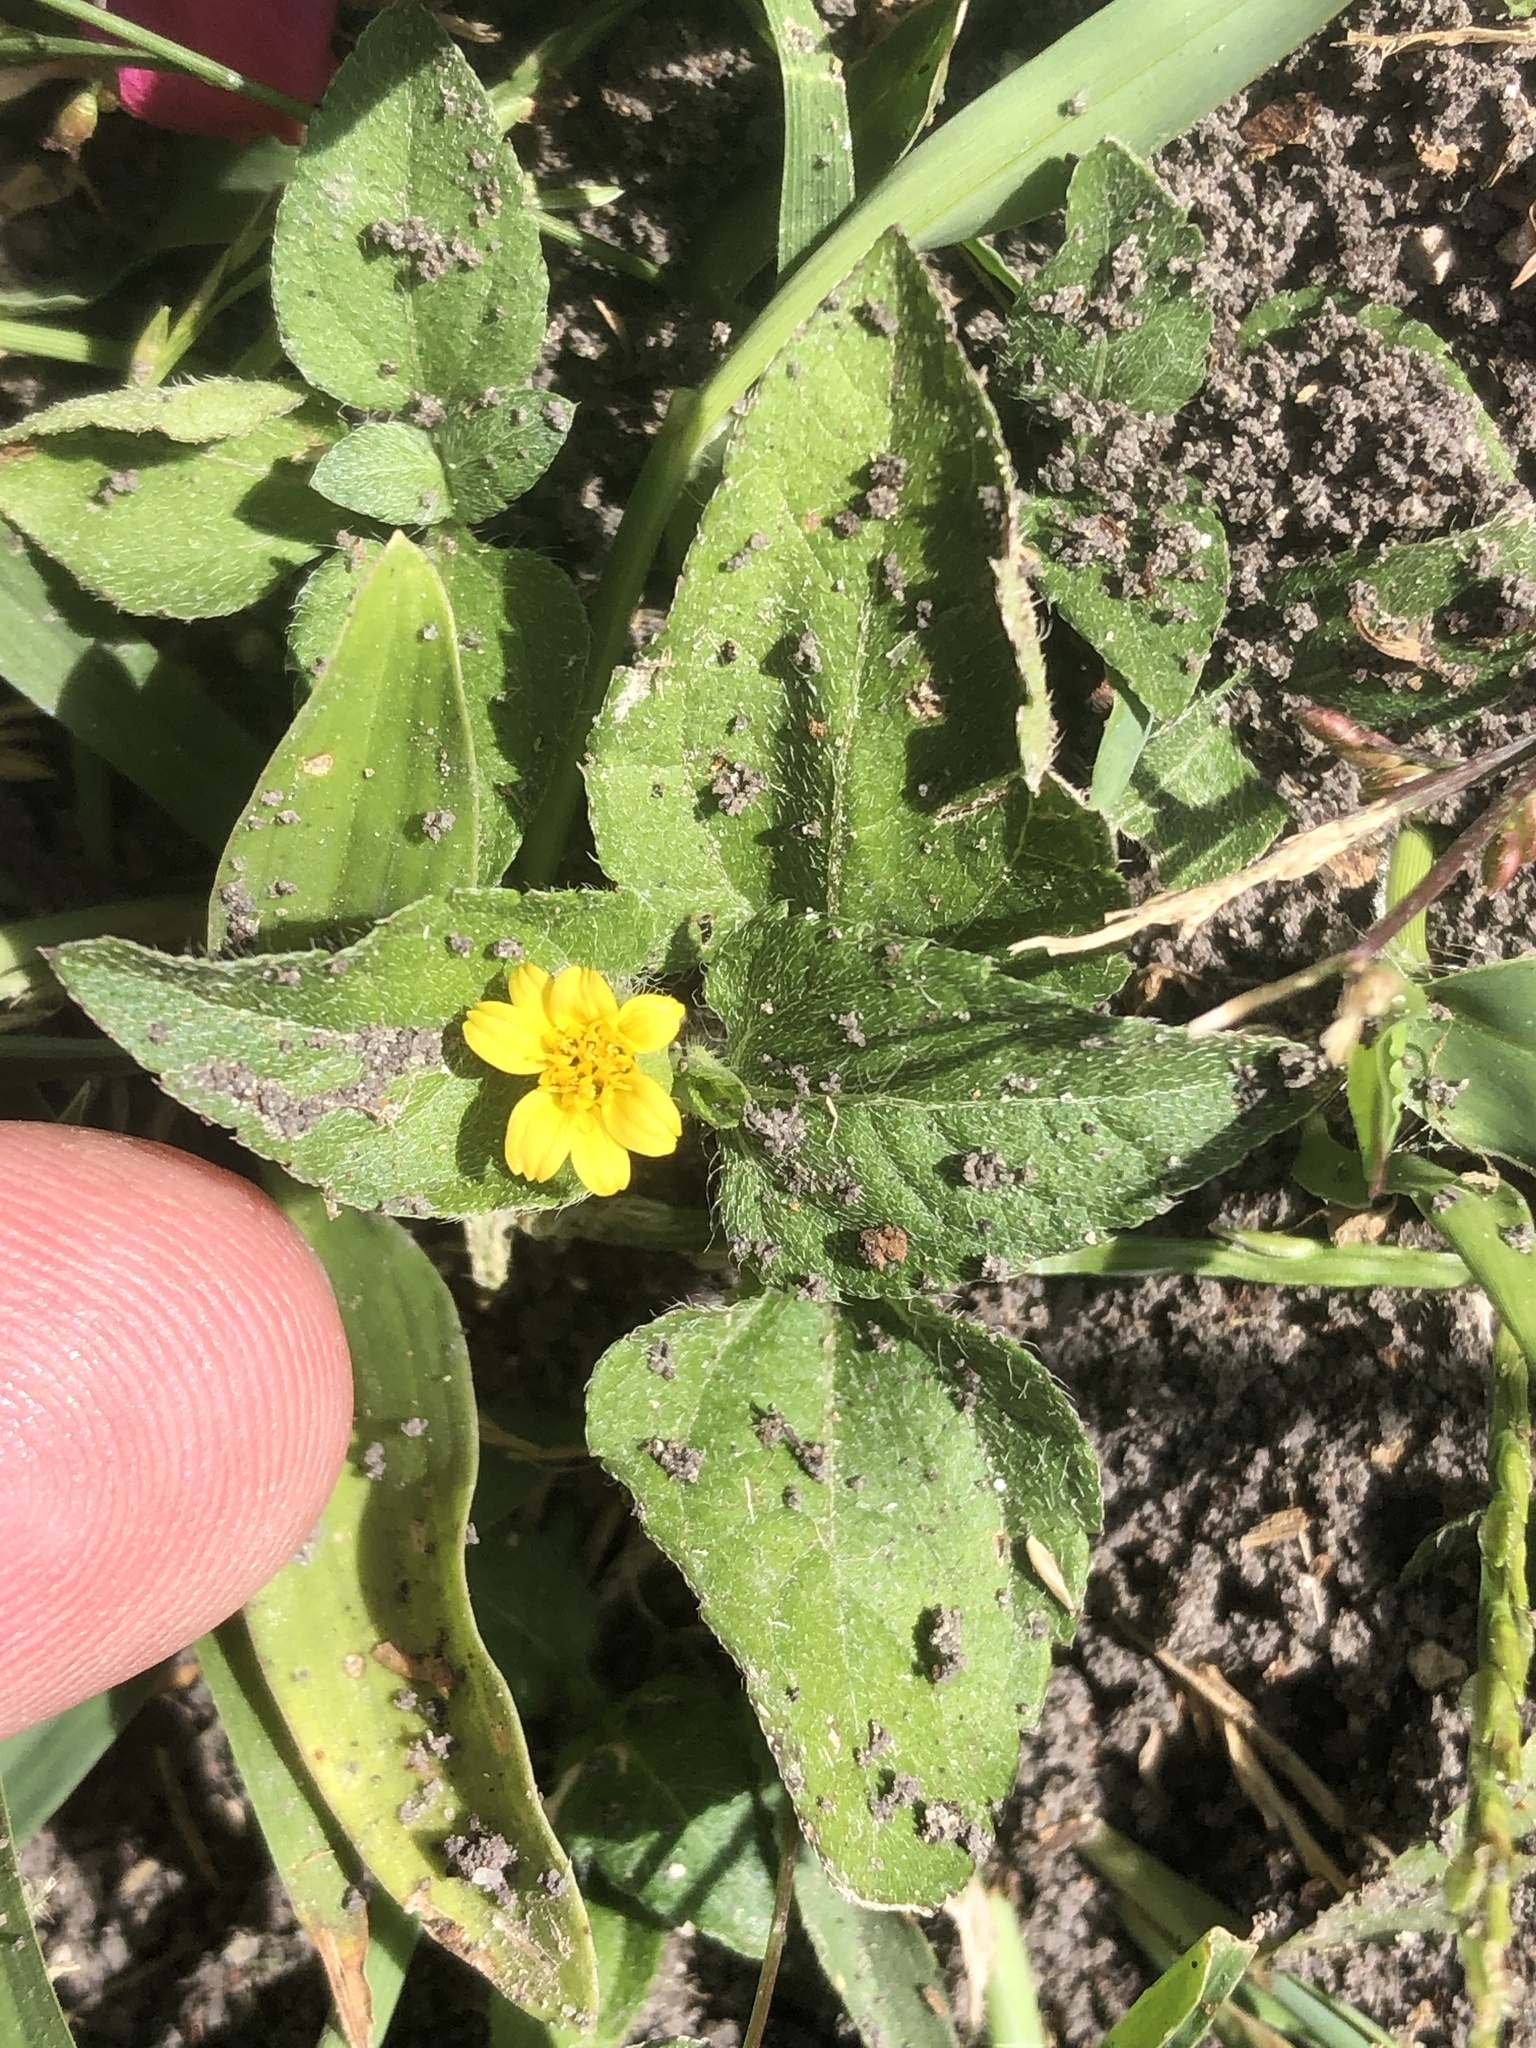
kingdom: Plantae
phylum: Tracheophyta
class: Magnoliopsida
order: Asterales
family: Asteraceae
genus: Calyptocarpus
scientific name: Calyptocarpus vialis
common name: Straggler daisy
